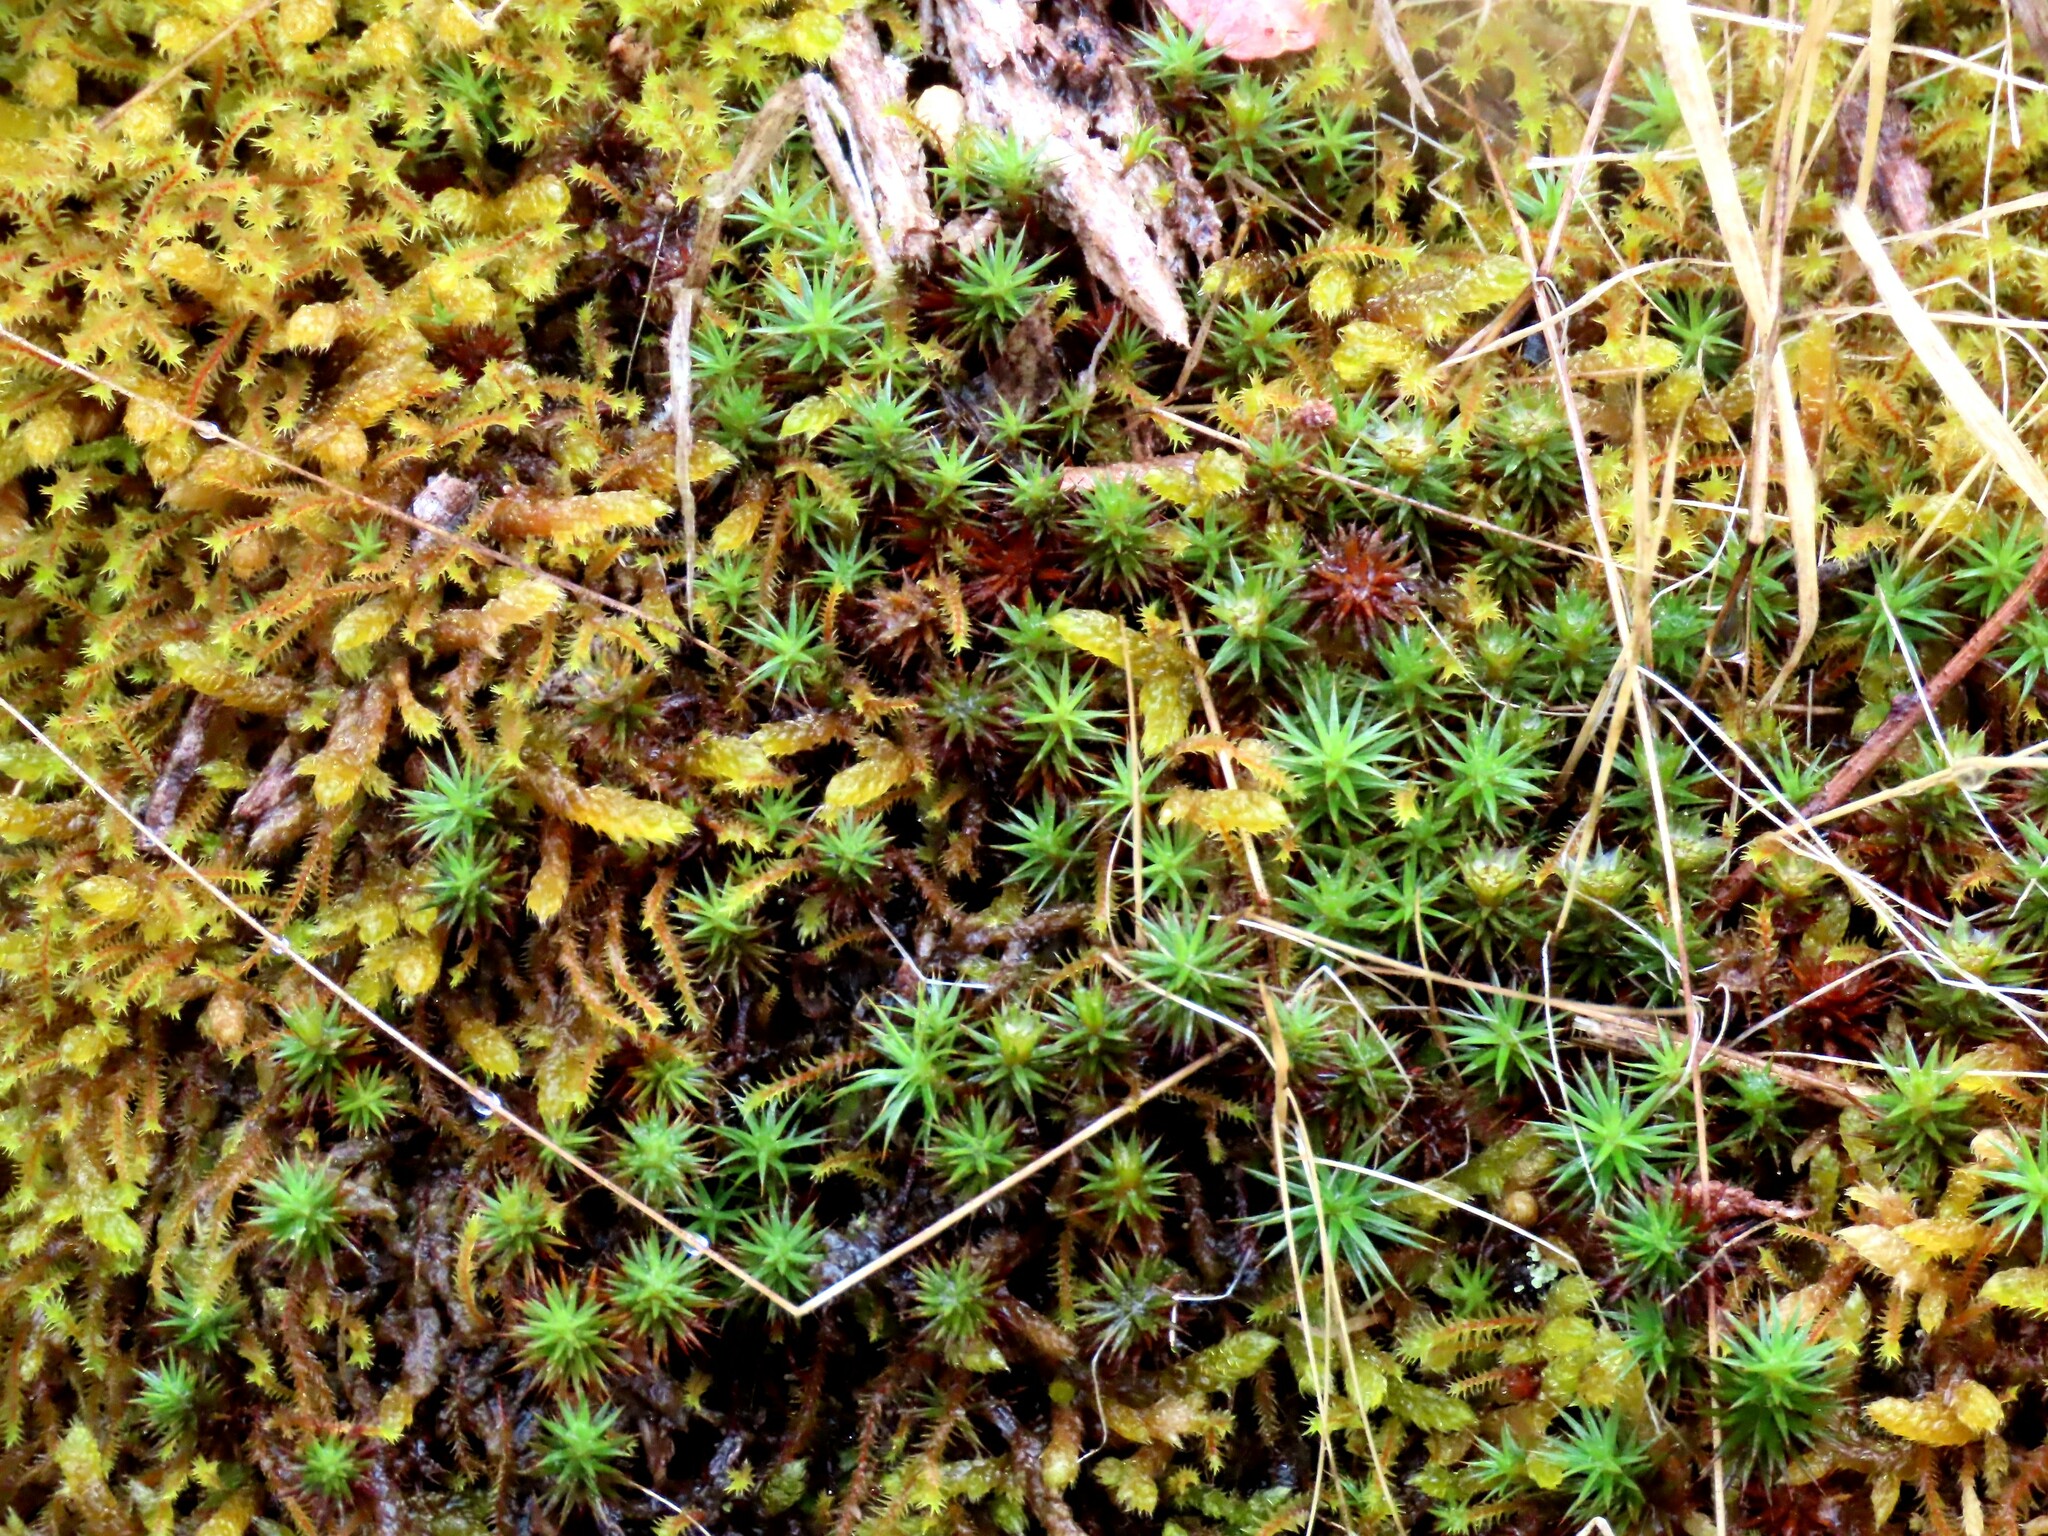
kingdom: Plantae
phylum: Bryophyta
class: Polytrichopsida
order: Polytrichales
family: Polytrichaceae
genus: Polytrichum
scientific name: Polytrichum juniperinum
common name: Juniper haircap moss
